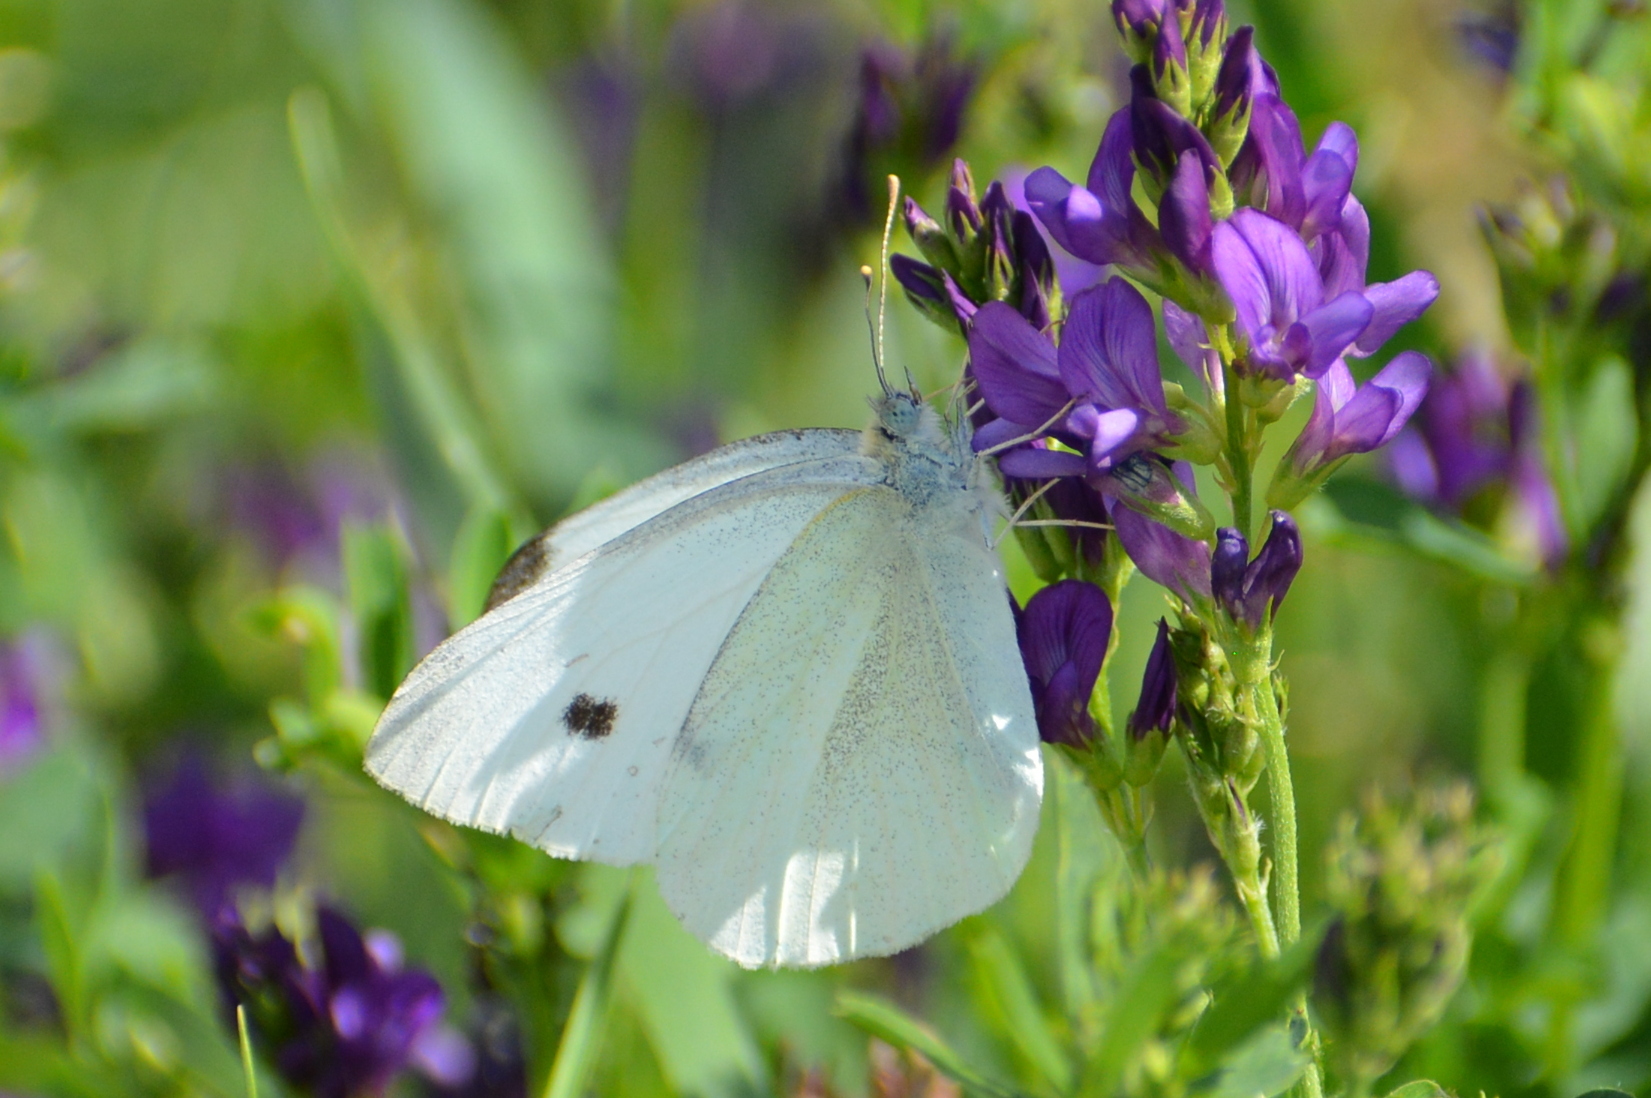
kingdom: Animalia
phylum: Arthropoda
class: Insecta
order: Lepidoptera
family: Pieridae
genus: Pieris
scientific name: Pieris rapae
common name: Small white
